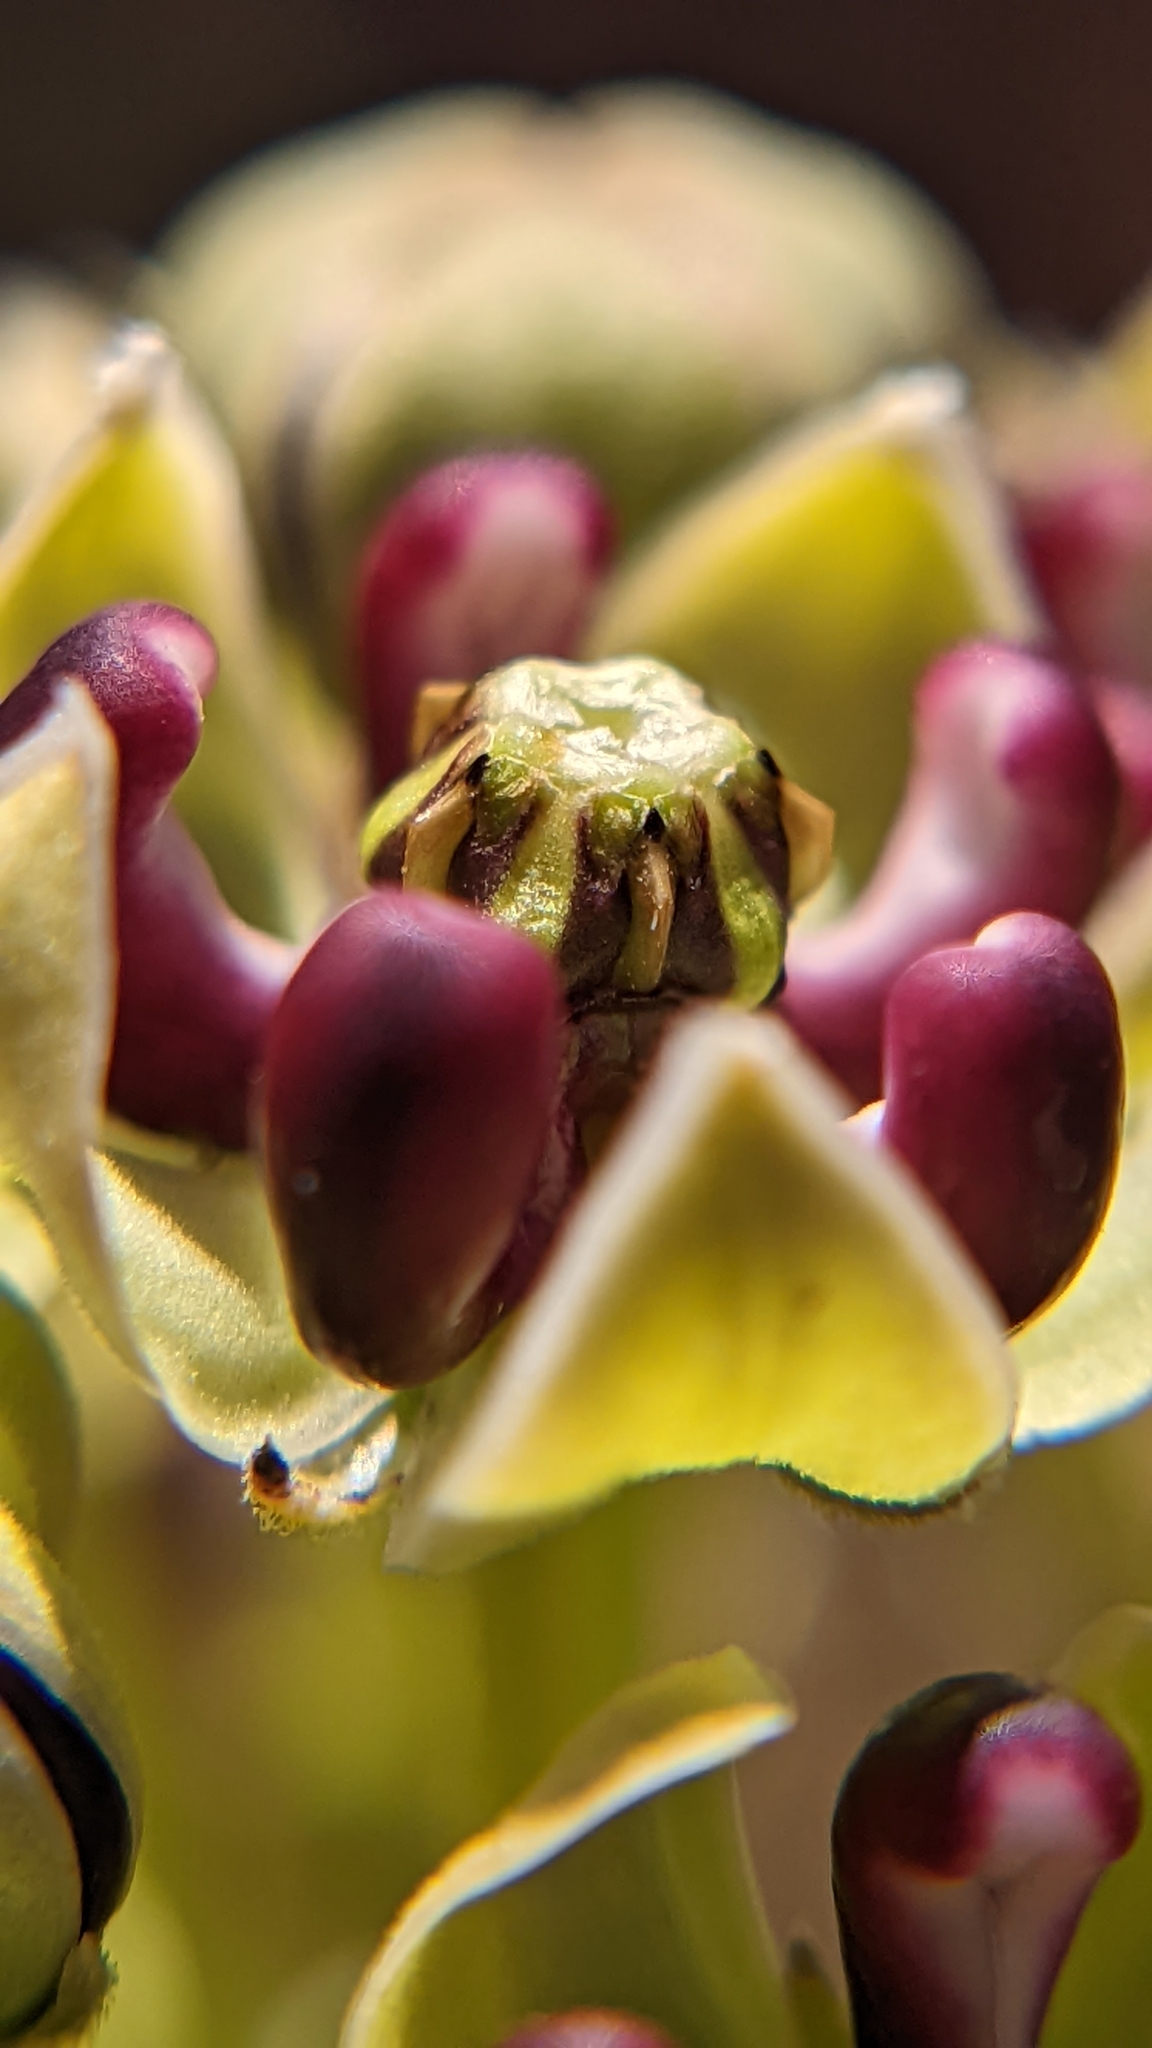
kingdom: Plantae
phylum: Tracheophyta
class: Magnoliopsida
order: Gentianales
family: Apocynaceae
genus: Asclepias
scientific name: Asclepias asperula
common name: Antelope horns
